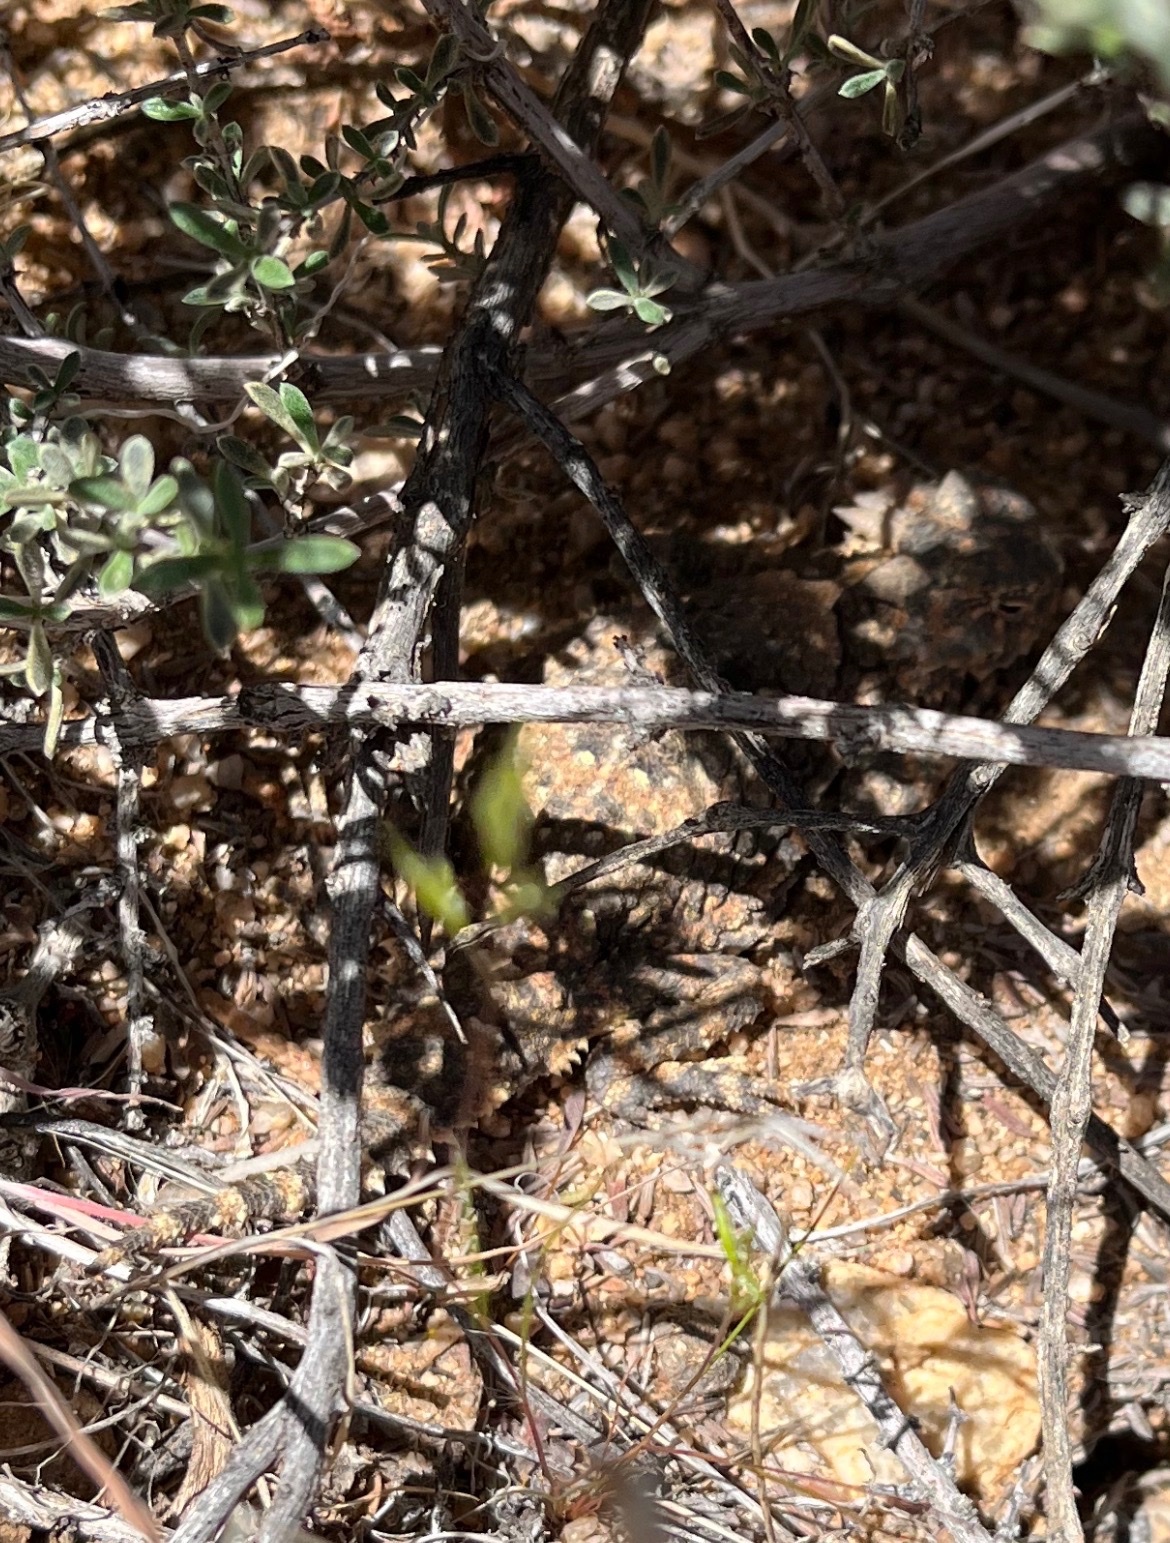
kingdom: Animalia
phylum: Chordata
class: Squamata
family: Phrynosomatidae
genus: Phrynosoma
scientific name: Phrynosoma platyrhinos
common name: Desert horned lizard
